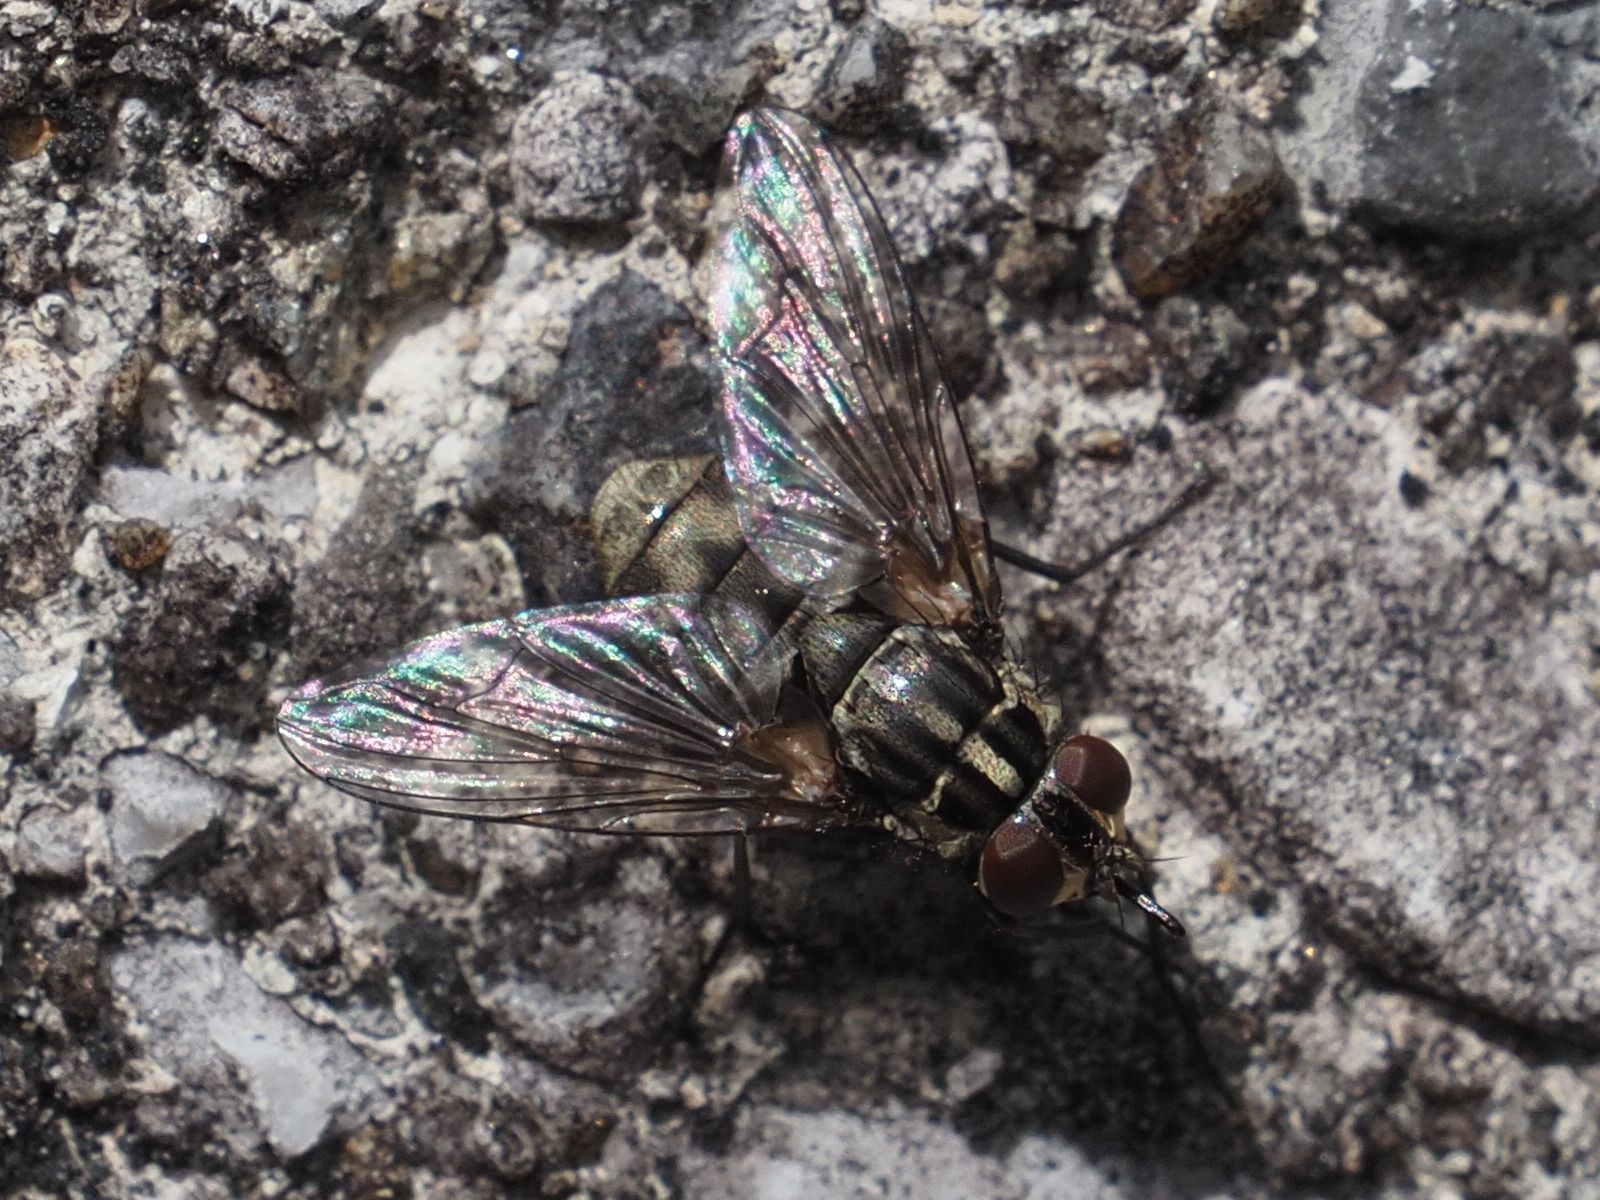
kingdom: Animalia
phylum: Arthropoda
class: Insecta
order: Diptera
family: Muscidae
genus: Stomoxys
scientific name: Stomoxys calcitrans
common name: Stable fly
